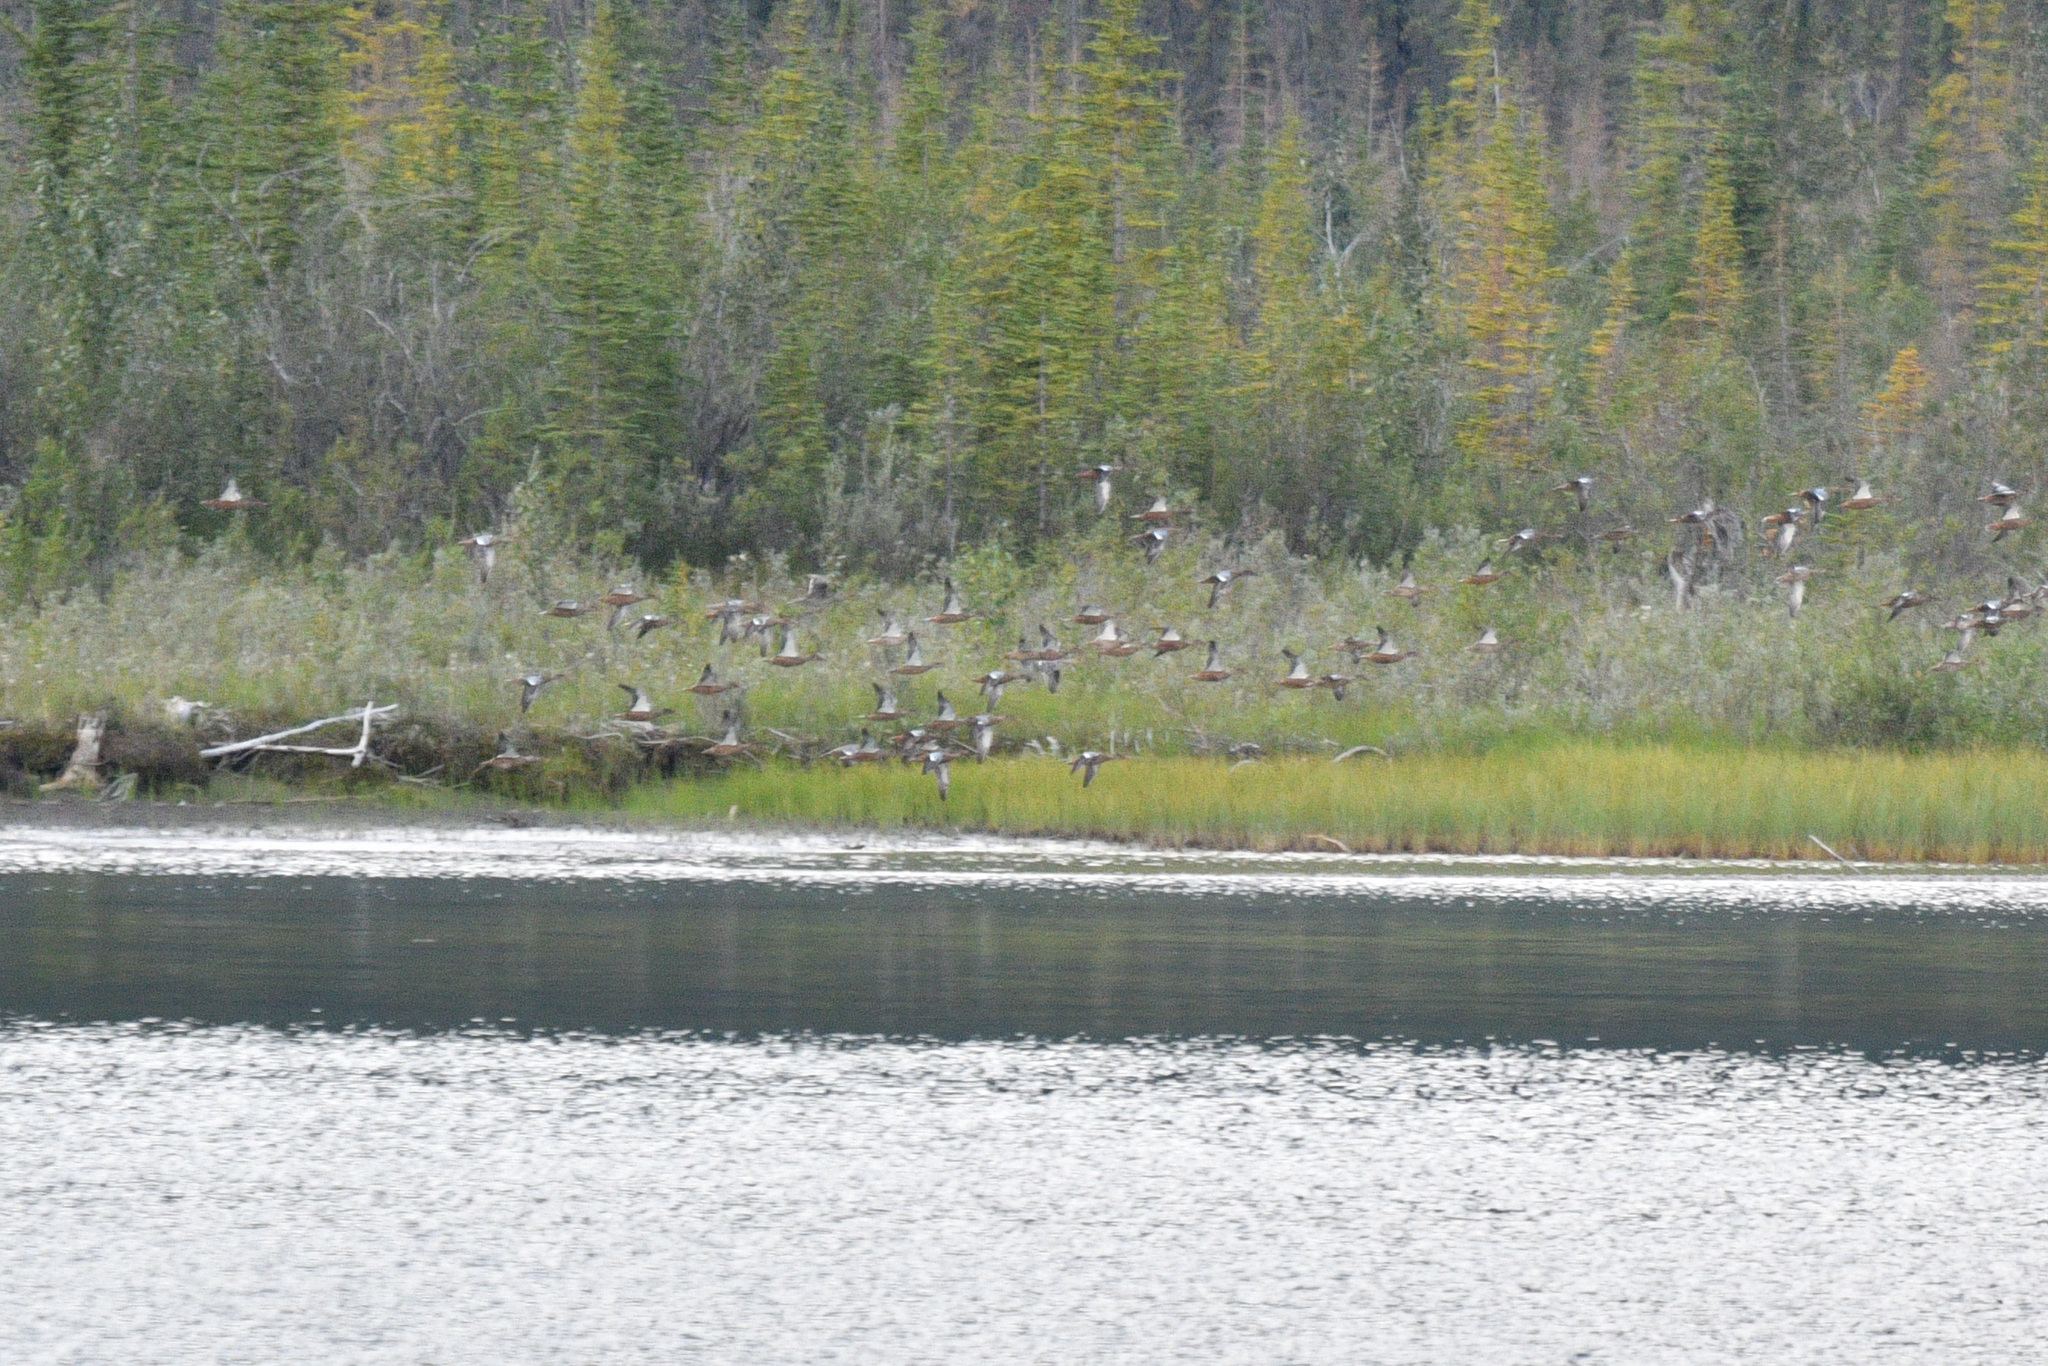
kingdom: Animalia
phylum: Chordata
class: Aves
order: Anseriformes
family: Anatidae
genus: Spatula
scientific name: Spatula discors
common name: Blue-winged teal
